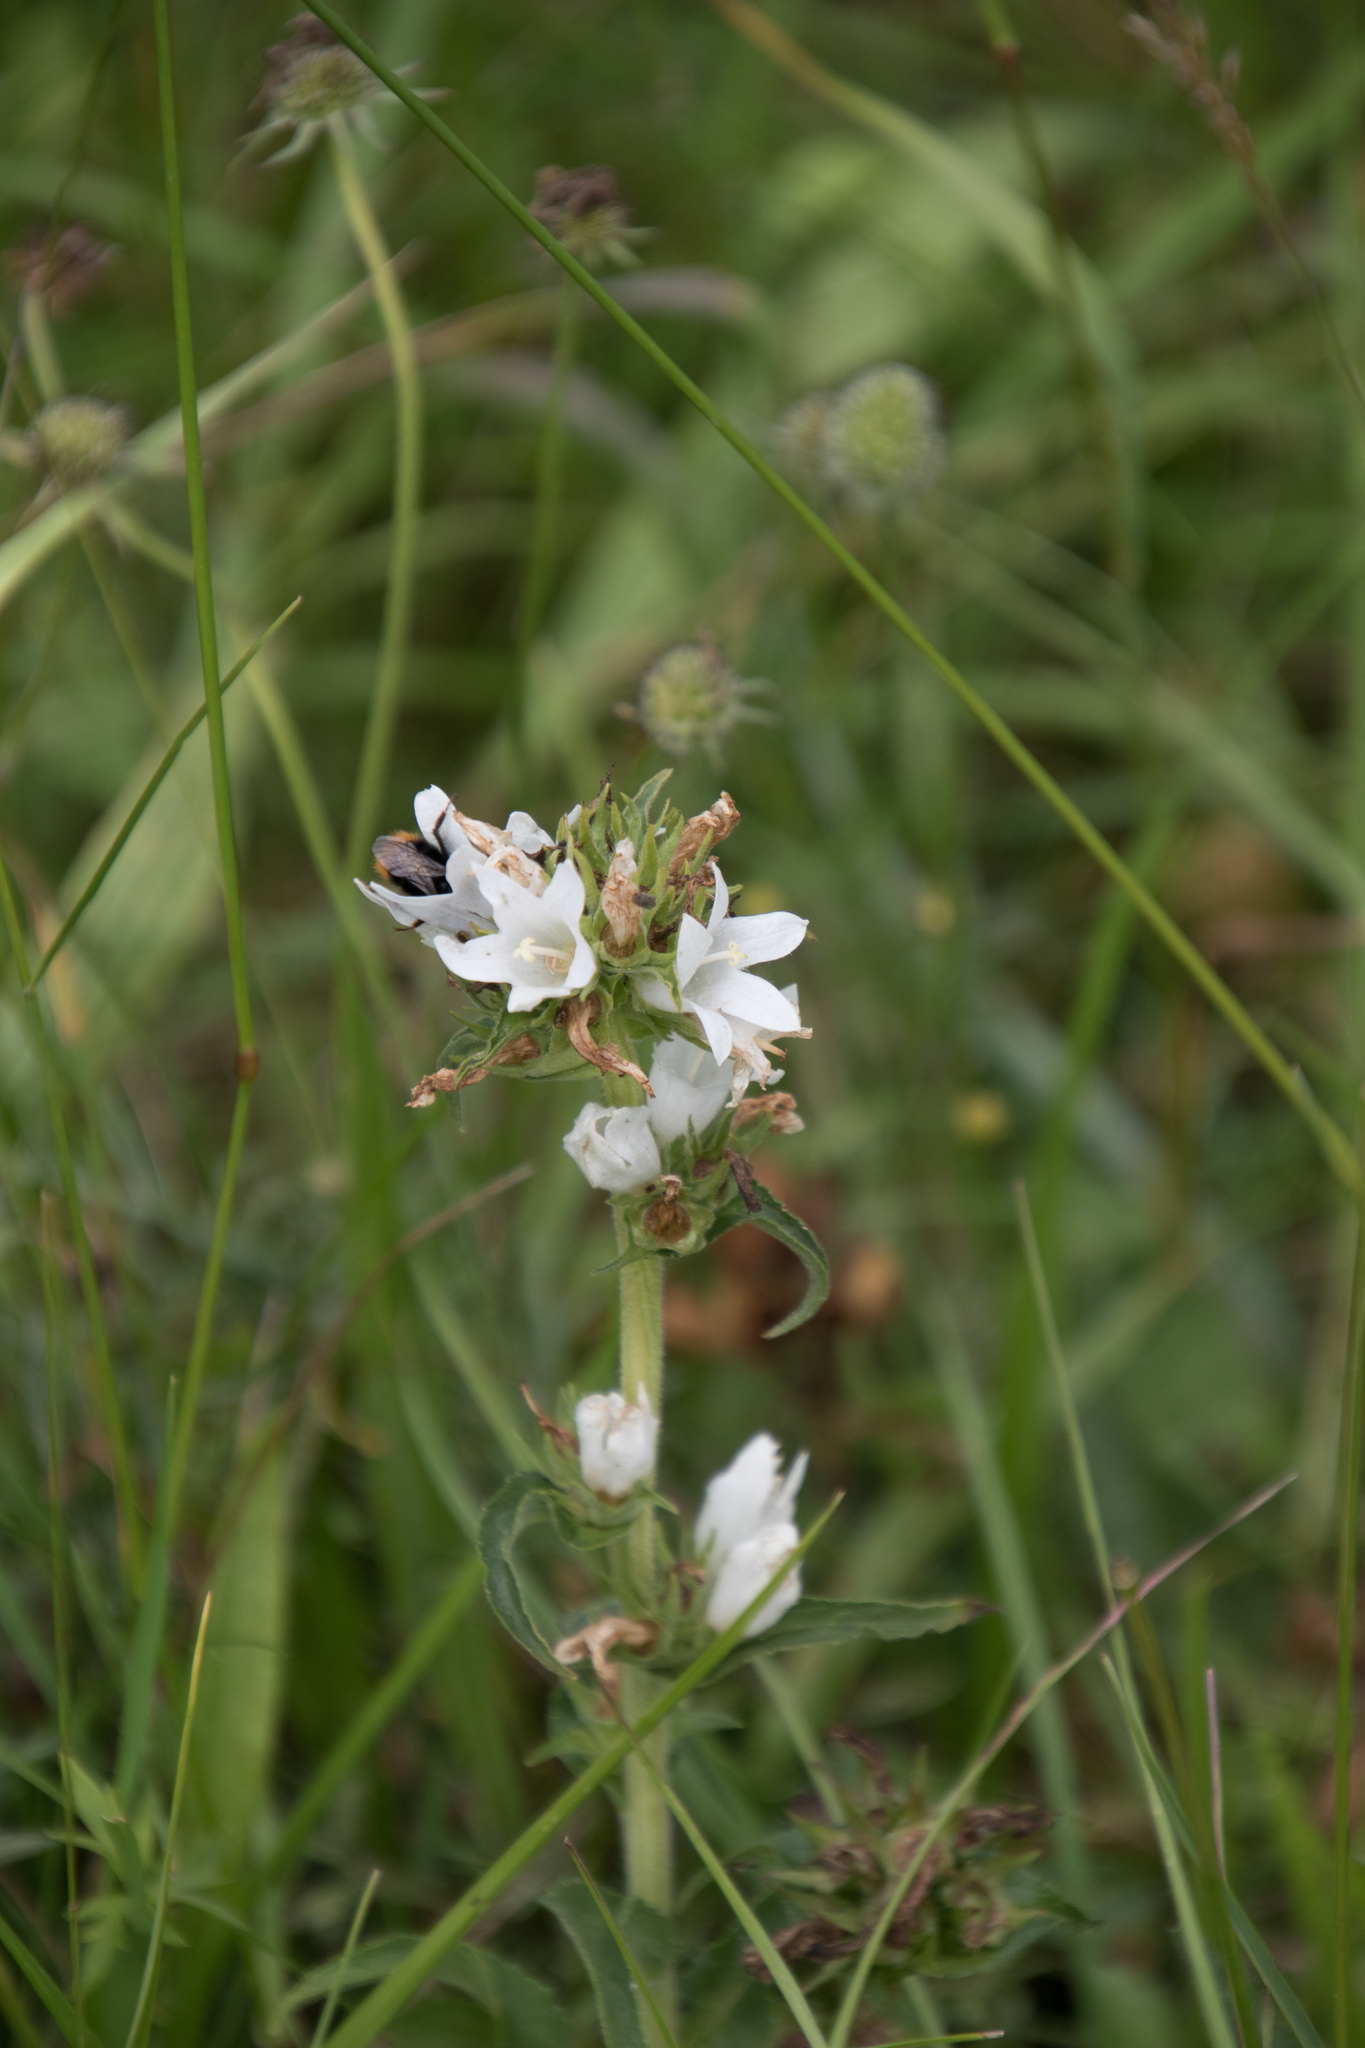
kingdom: Plantae
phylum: Tracheophyta
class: Magnoliopsida
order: Asterales
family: Campanulaceae
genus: Campanula
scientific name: Campanula glomerata
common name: Clustered bellflower
